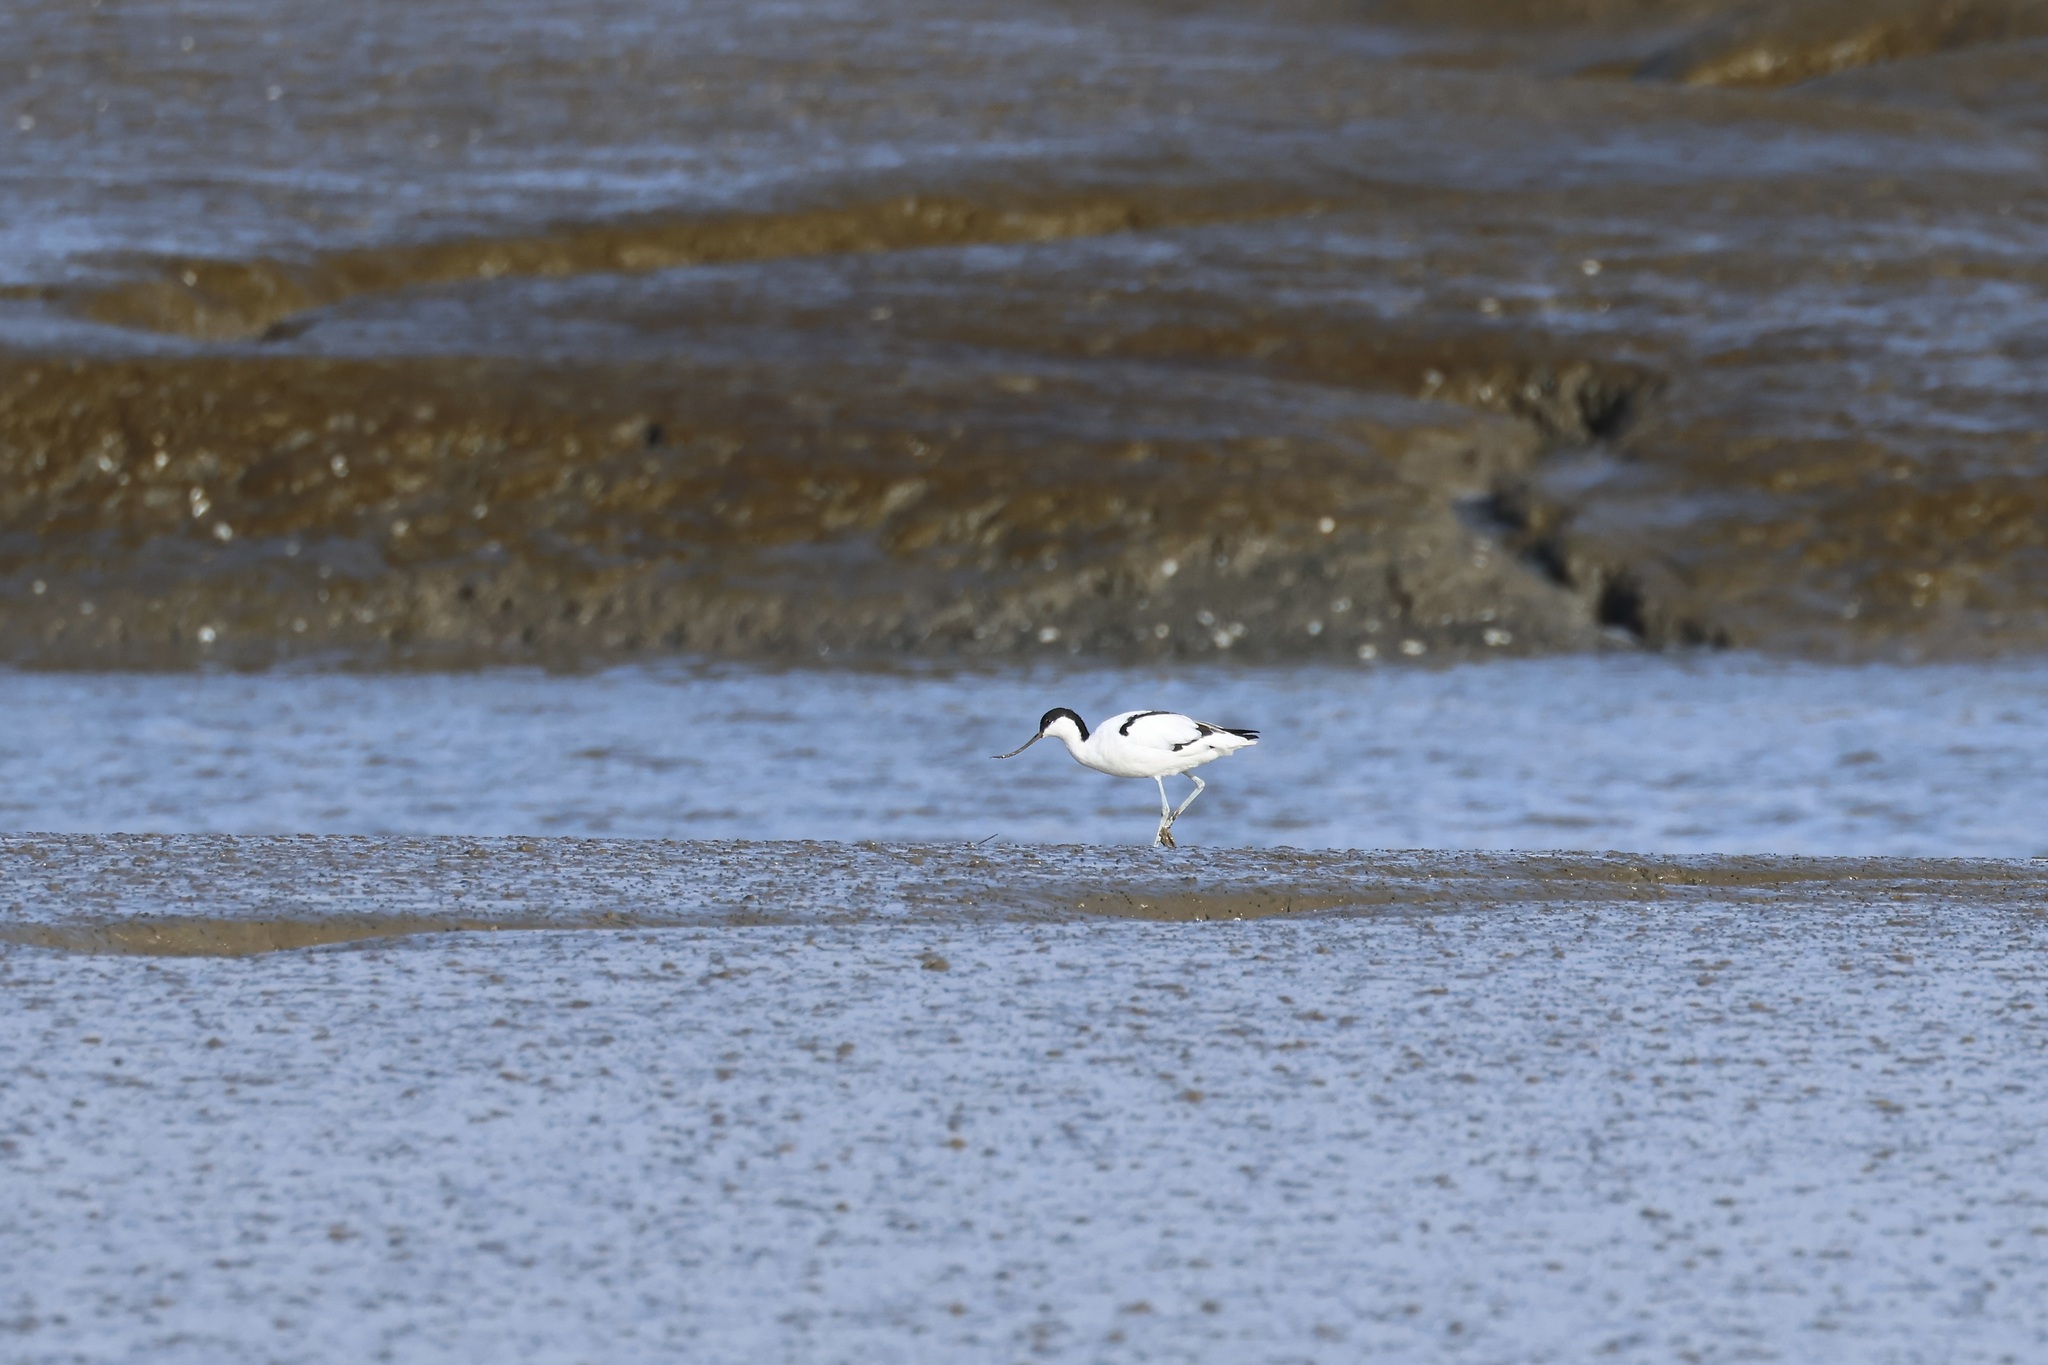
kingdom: Animalia
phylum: Chordata
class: Aves
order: Charadriiformes
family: Recurvirostridae
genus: Recurvirostra
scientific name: Recurvirostra avosetta
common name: Pied avocet
